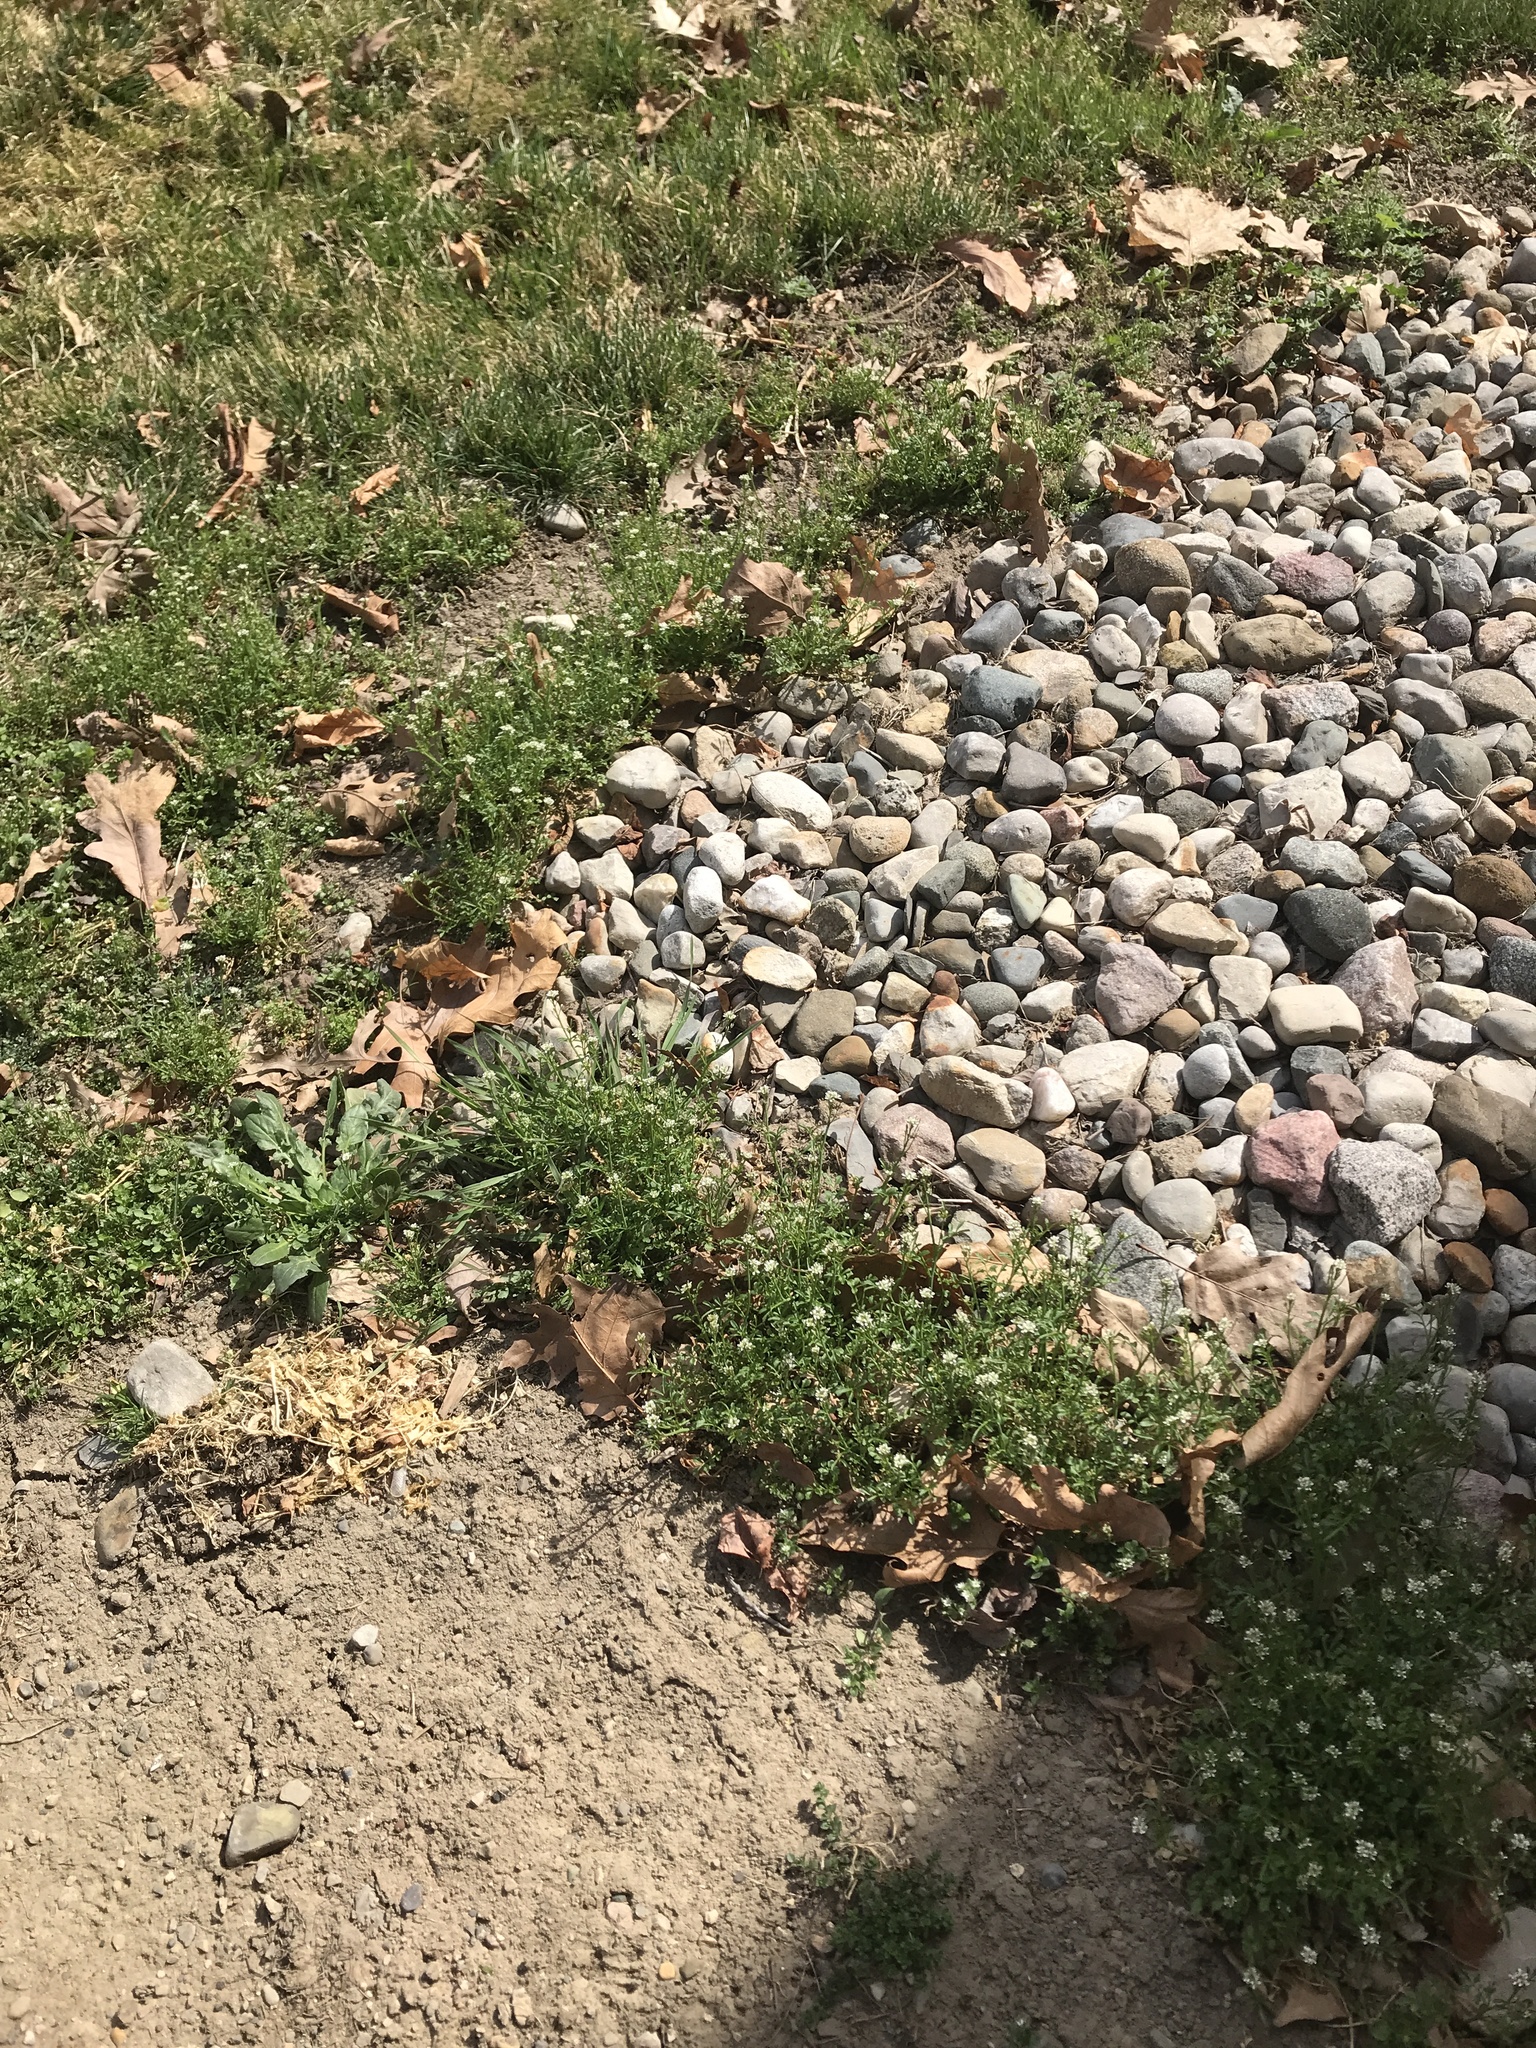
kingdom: Plantae
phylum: Tracheophyta
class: Magnoliopsida
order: Brassicales
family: Brassicaceae
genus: Cardamine
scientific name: Cardamine hirsuta
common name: Hairy bittercress
